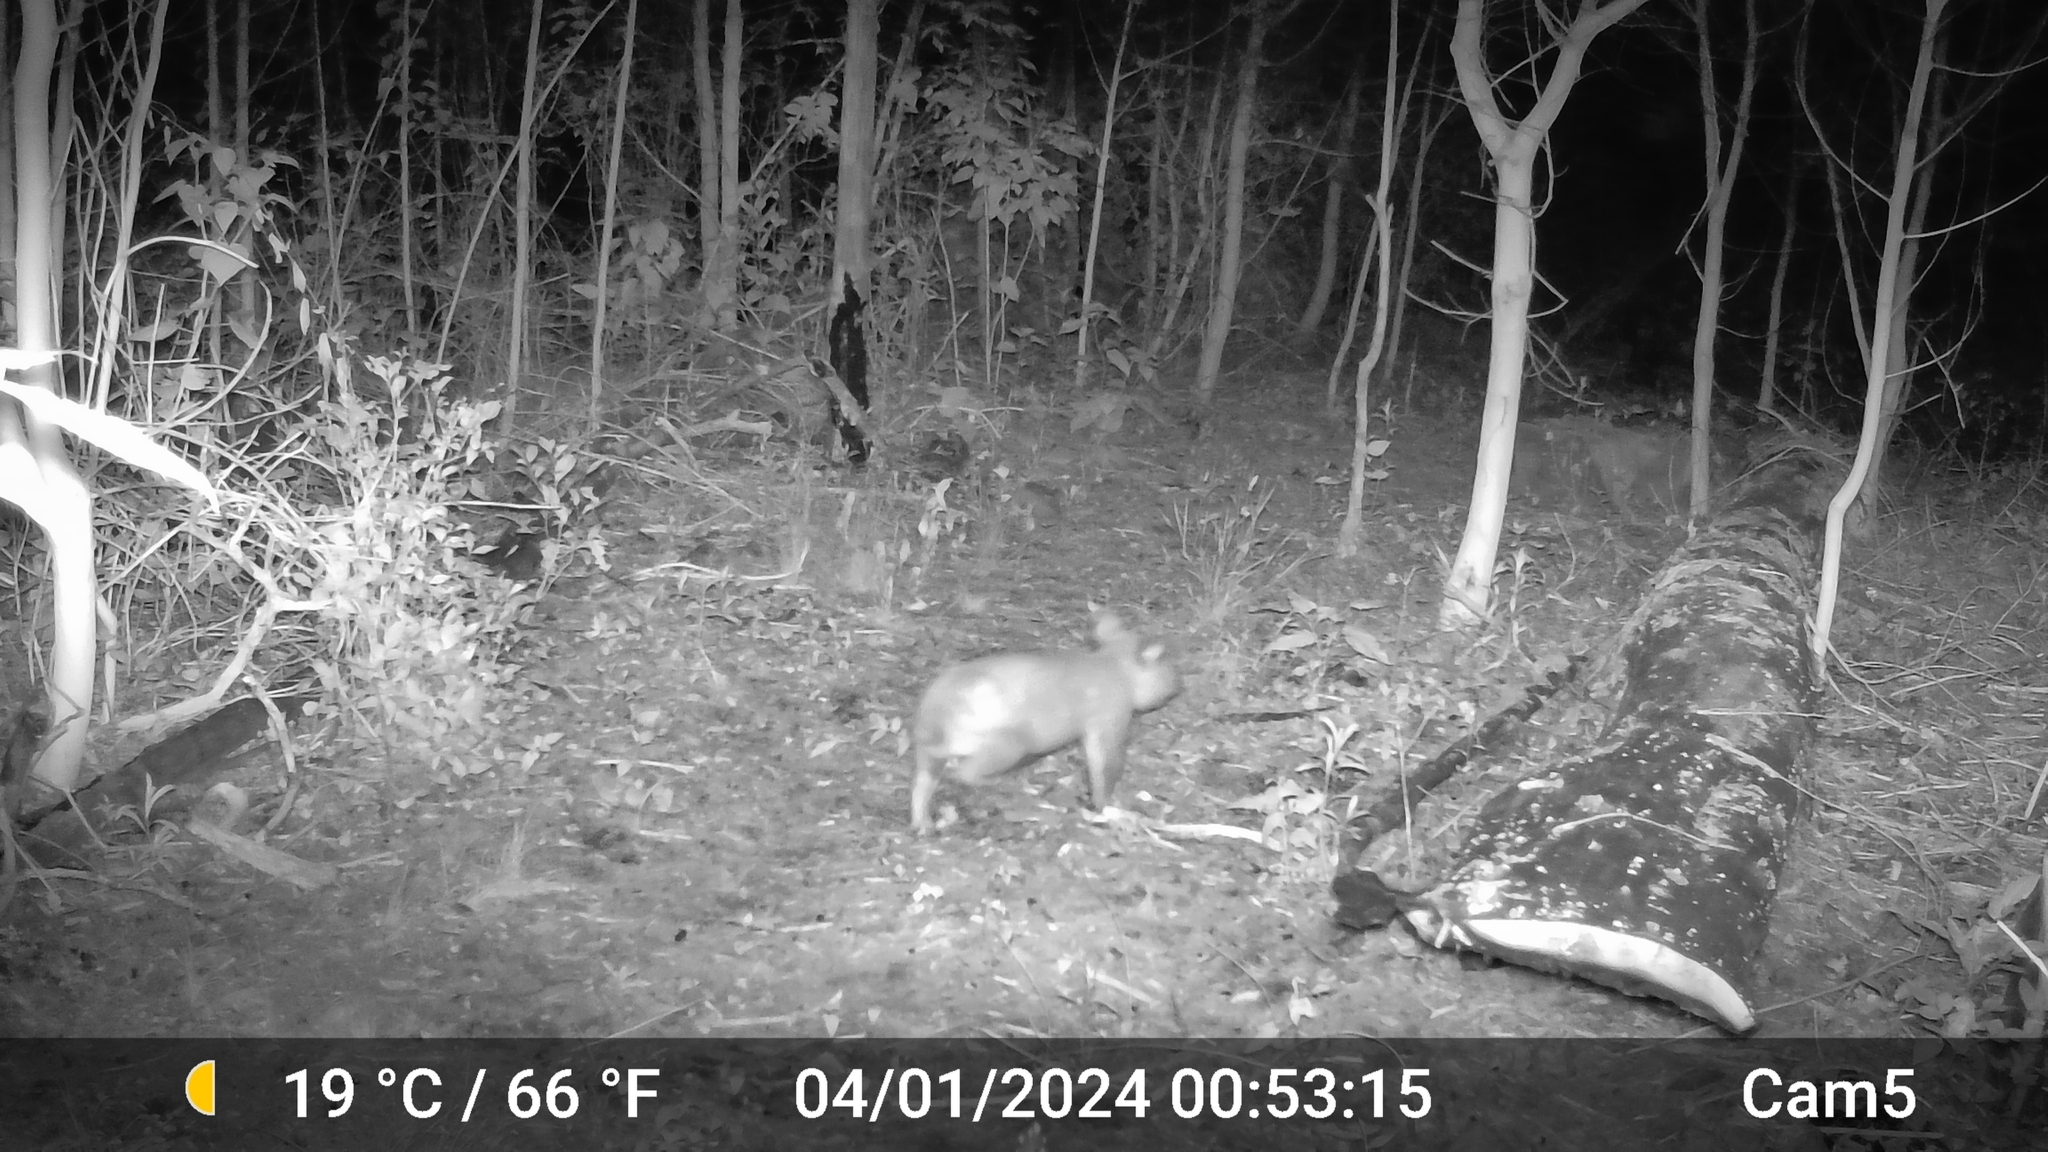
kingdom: Animalia
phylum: Chordata
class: Mammalia
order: Diprotodontia
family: Phascolarctidae
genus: Phascolarctos
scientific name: Phascolarctos cinereus
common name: Koala
